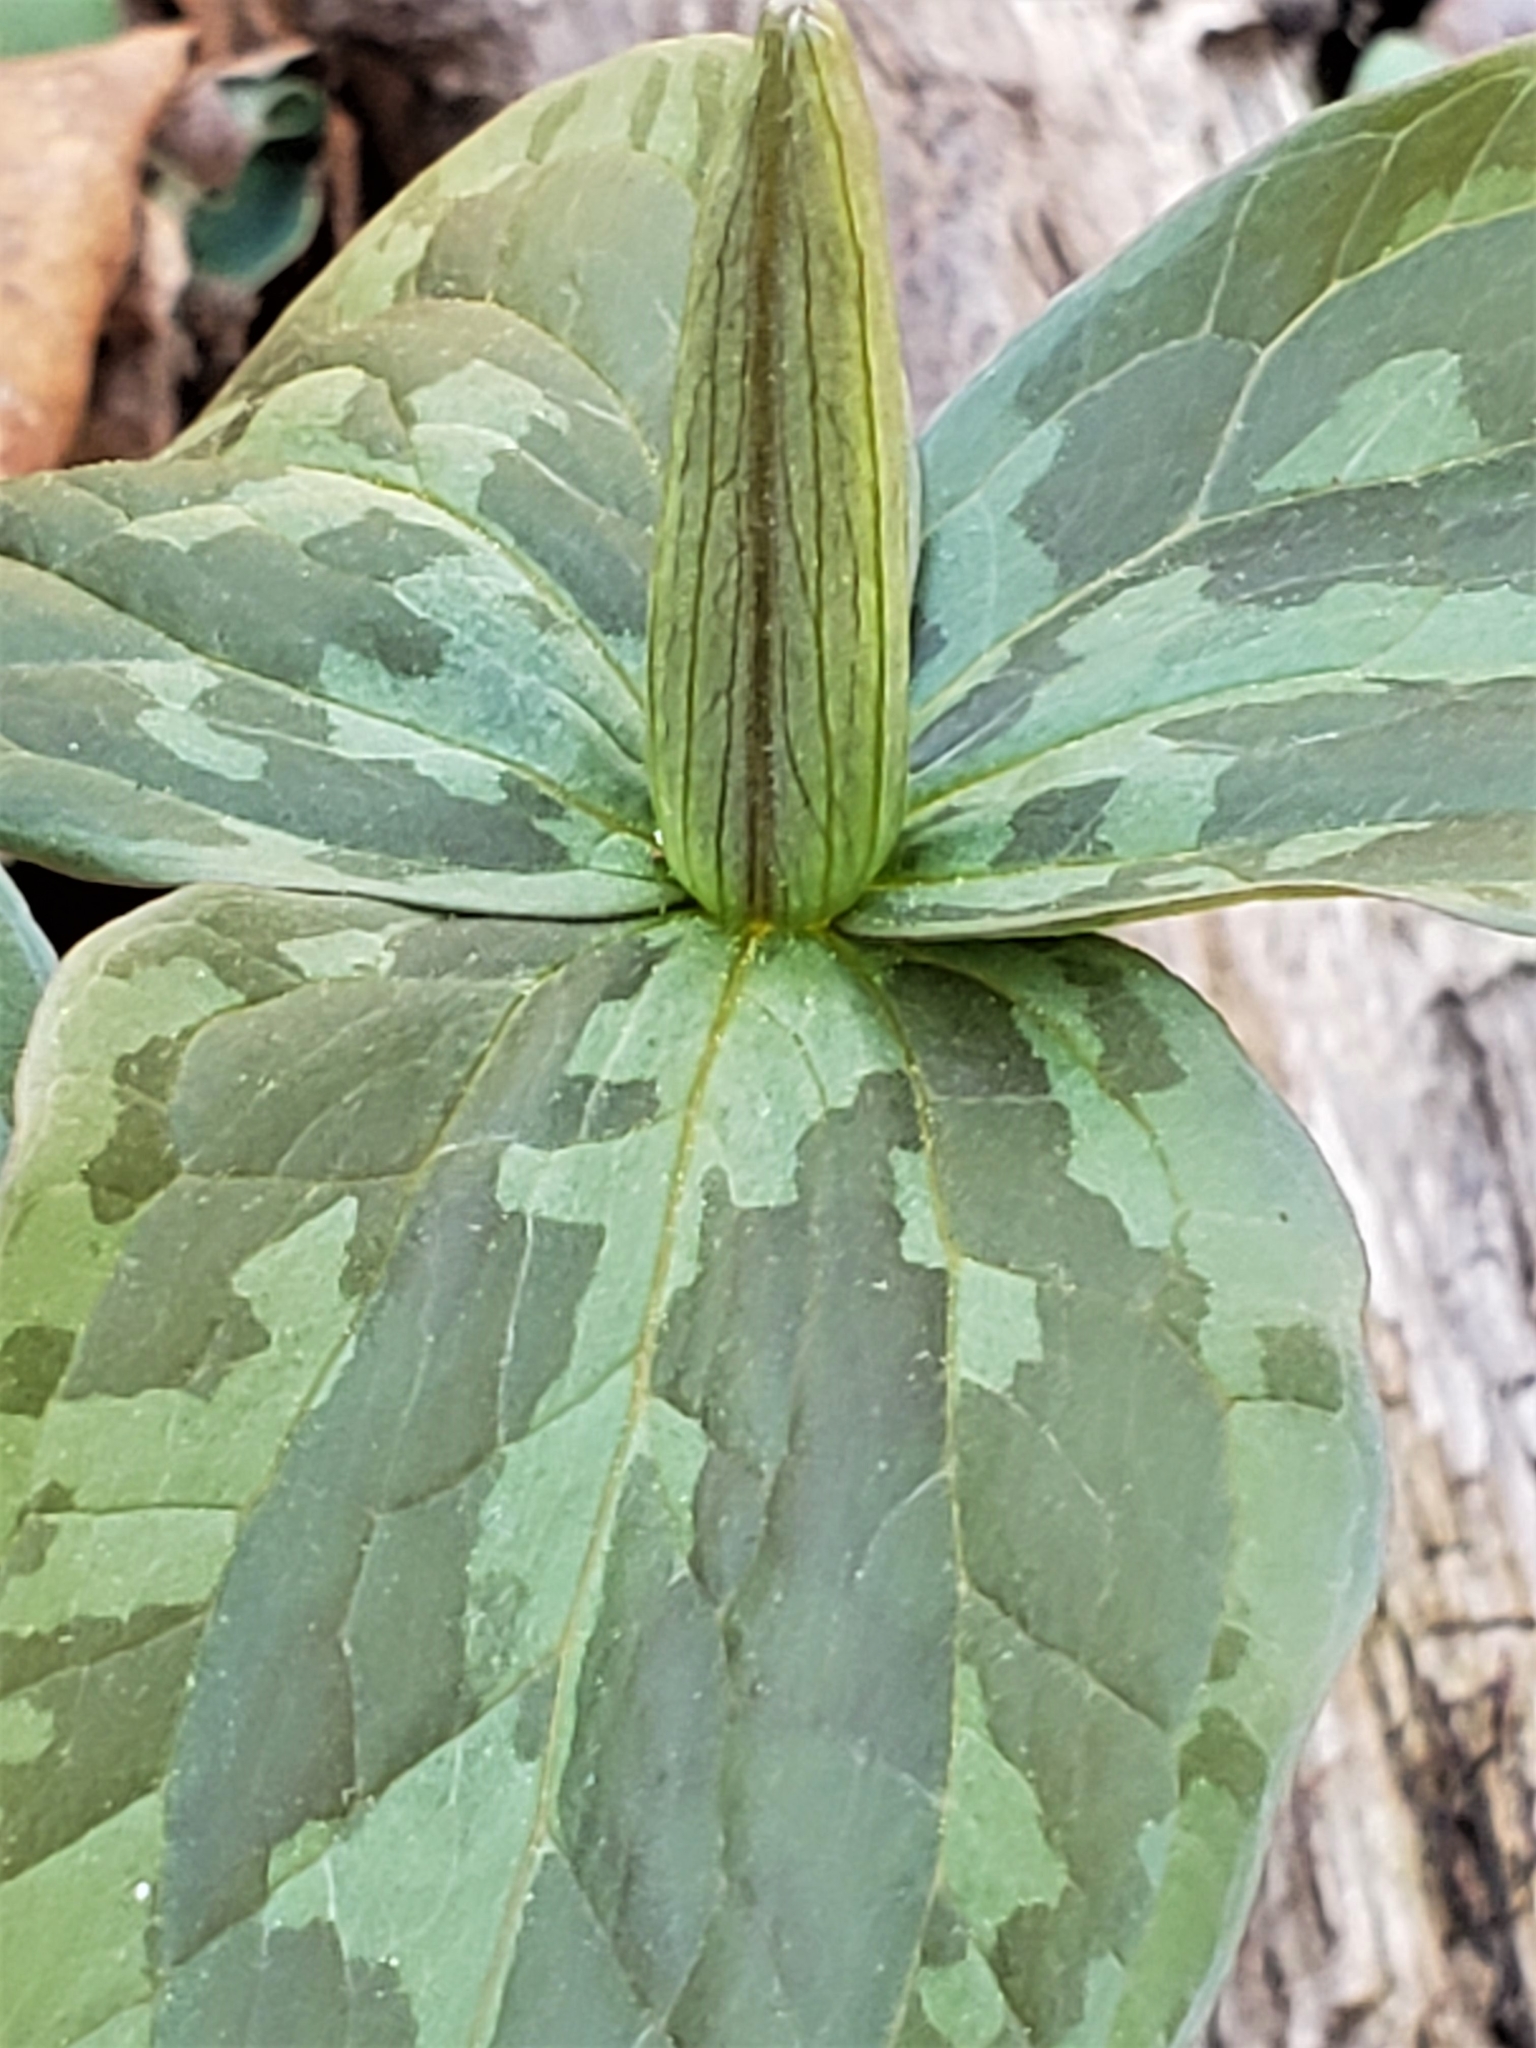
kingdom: Plantae
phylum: Tracheophyta
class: Liliopsida
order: Liliales
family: Melanthiaceae
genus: Trillium
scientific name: Trillium viridescens
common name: Ozark green trillium
